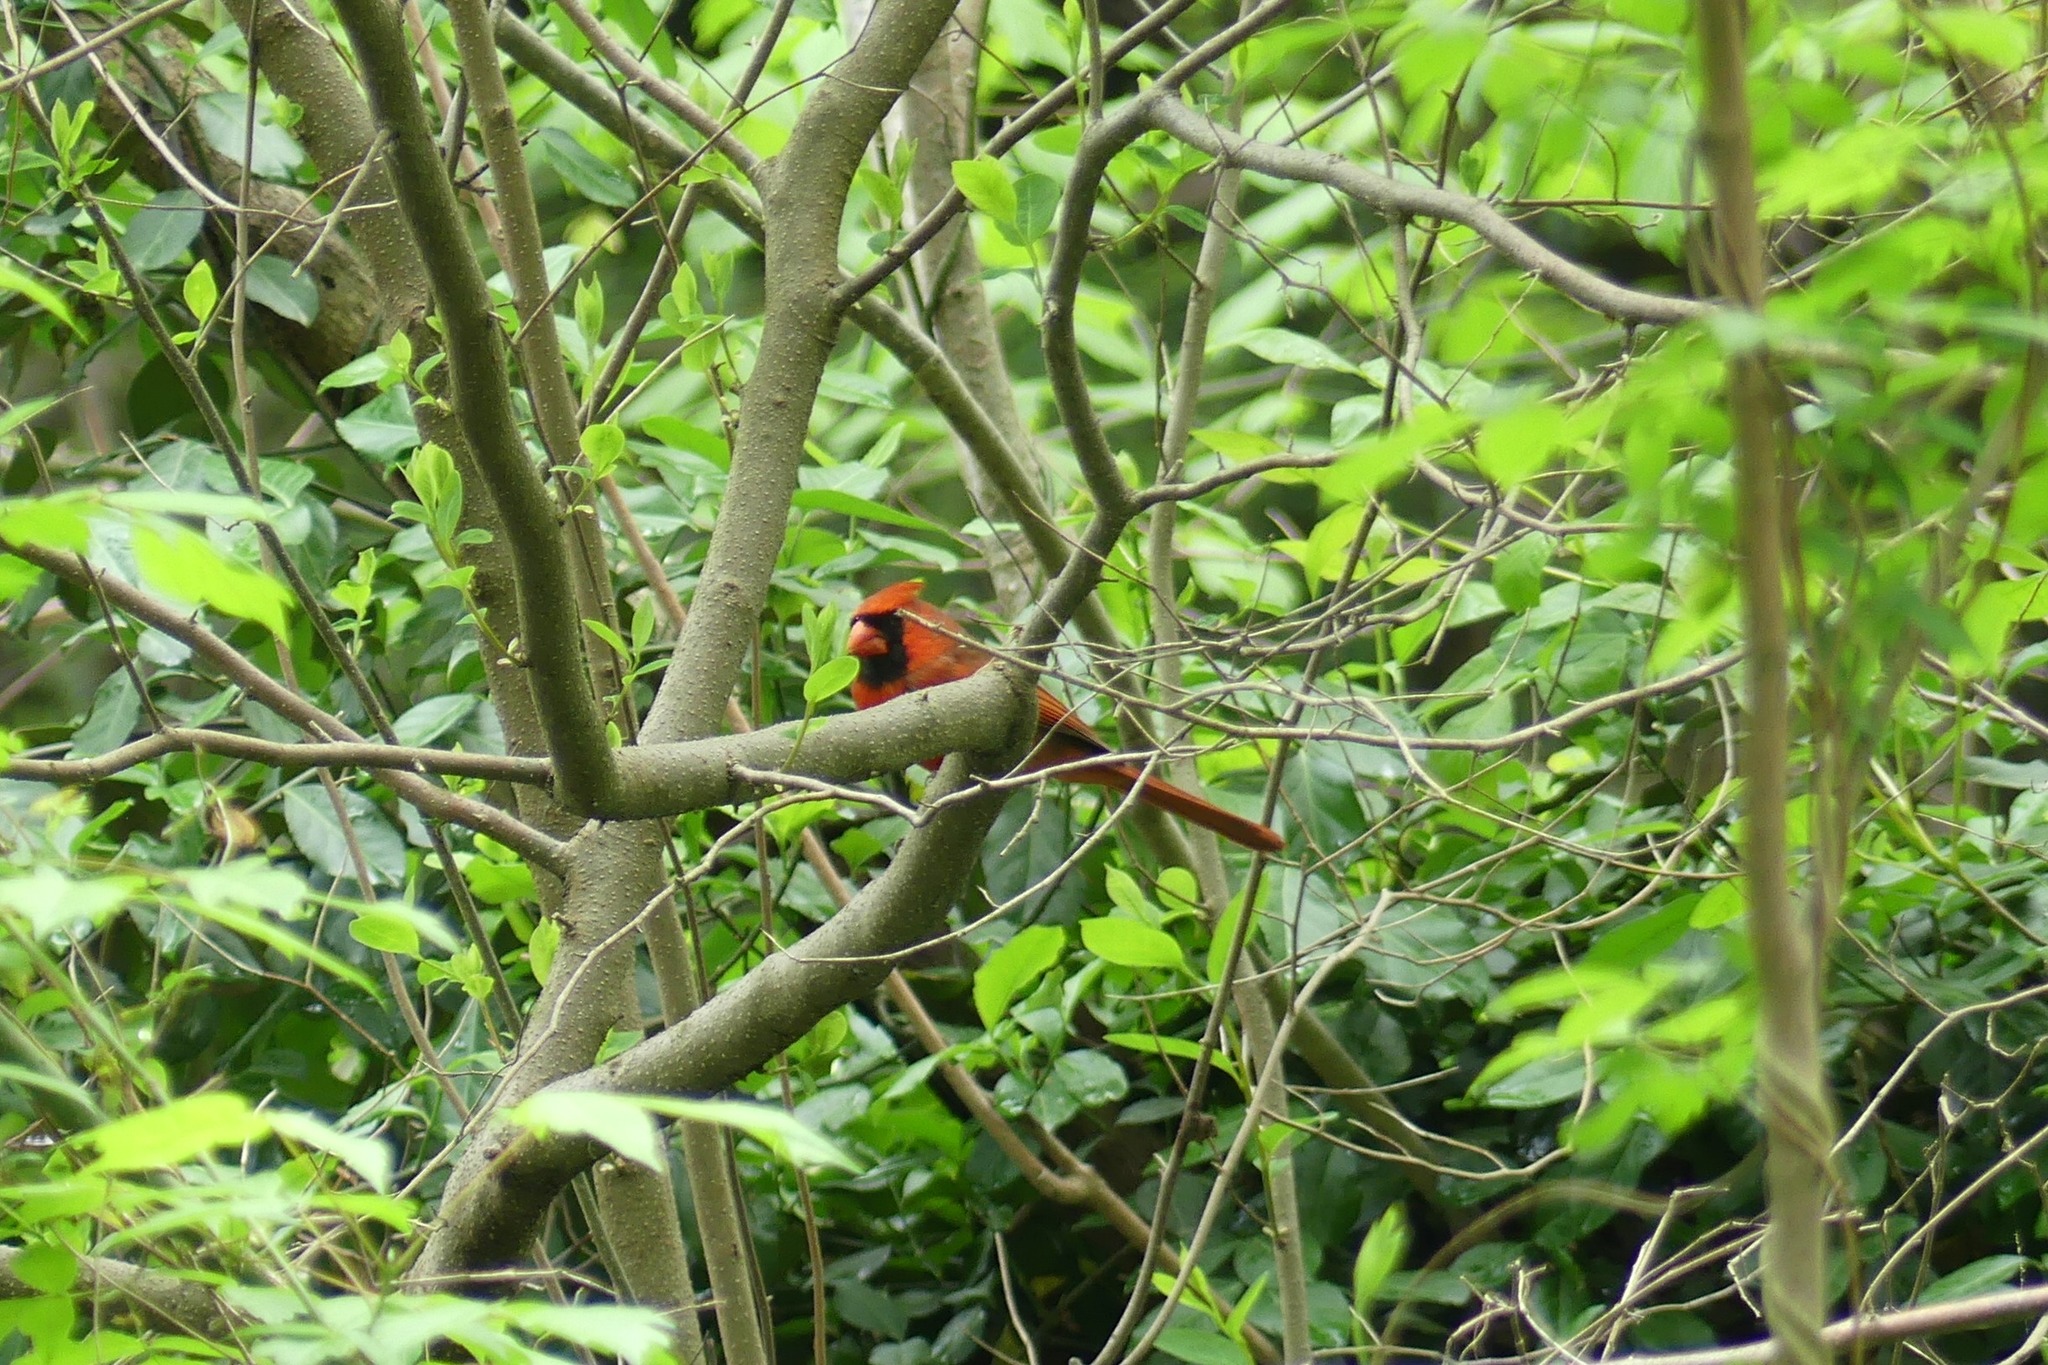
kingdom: Animalia
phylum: Chordata
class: Aves
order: Passeriformes
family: Cardinalidae
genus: Cardinalis
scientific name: Cardinalis cardinalis
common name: Northern cardinal
